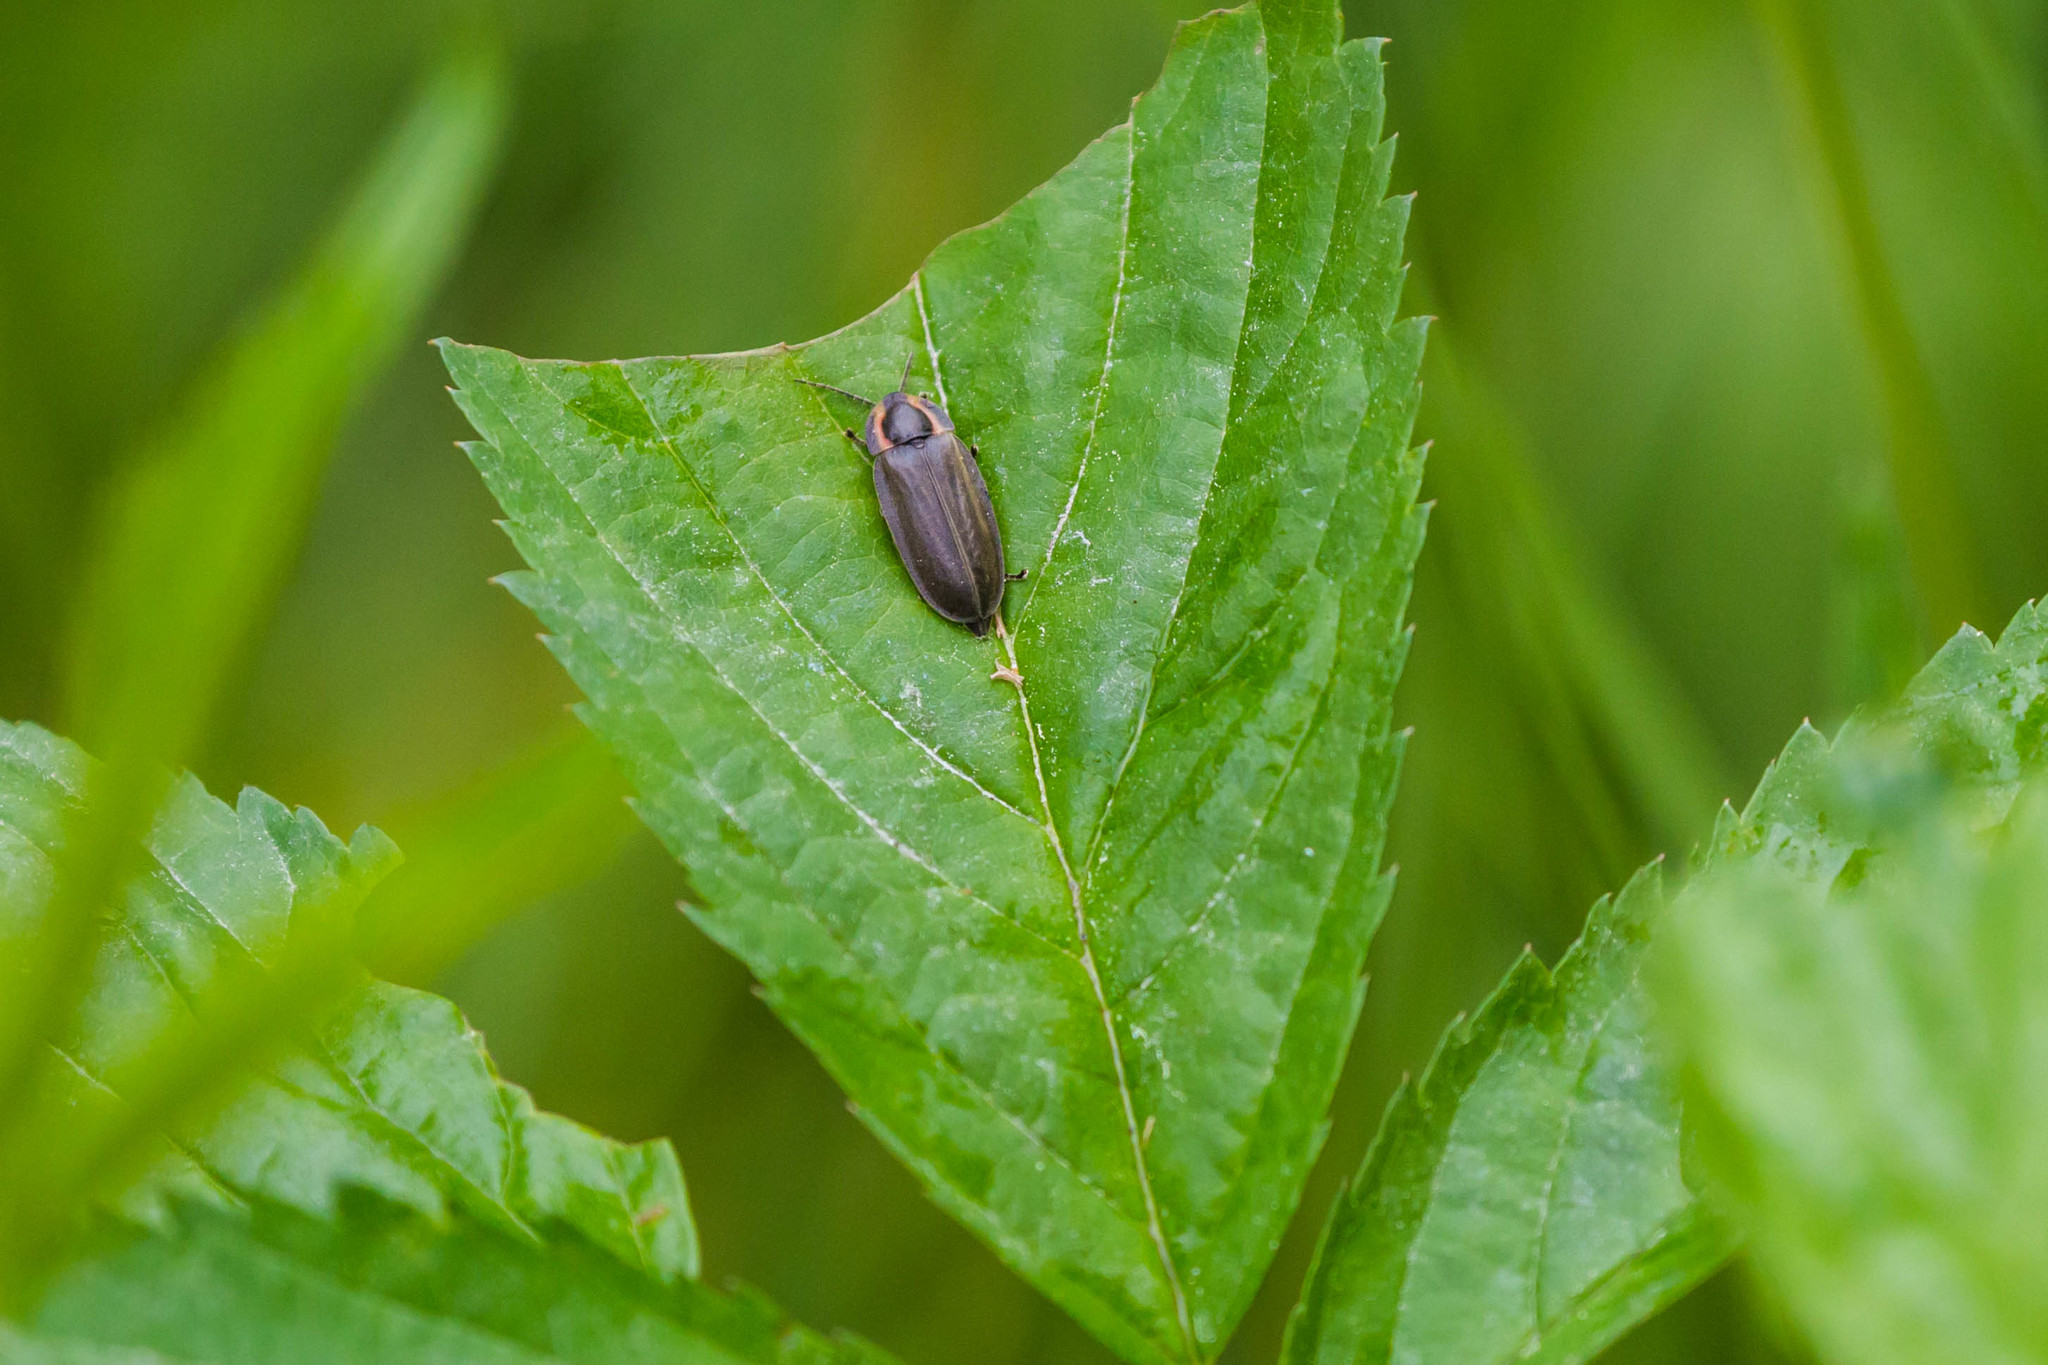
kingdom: Animalia
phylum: Arthropoda
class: Insecta
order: Coleoptera
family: Lampyridae
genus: Photinus
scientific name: Photinus corrusca
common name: Winter firefly
